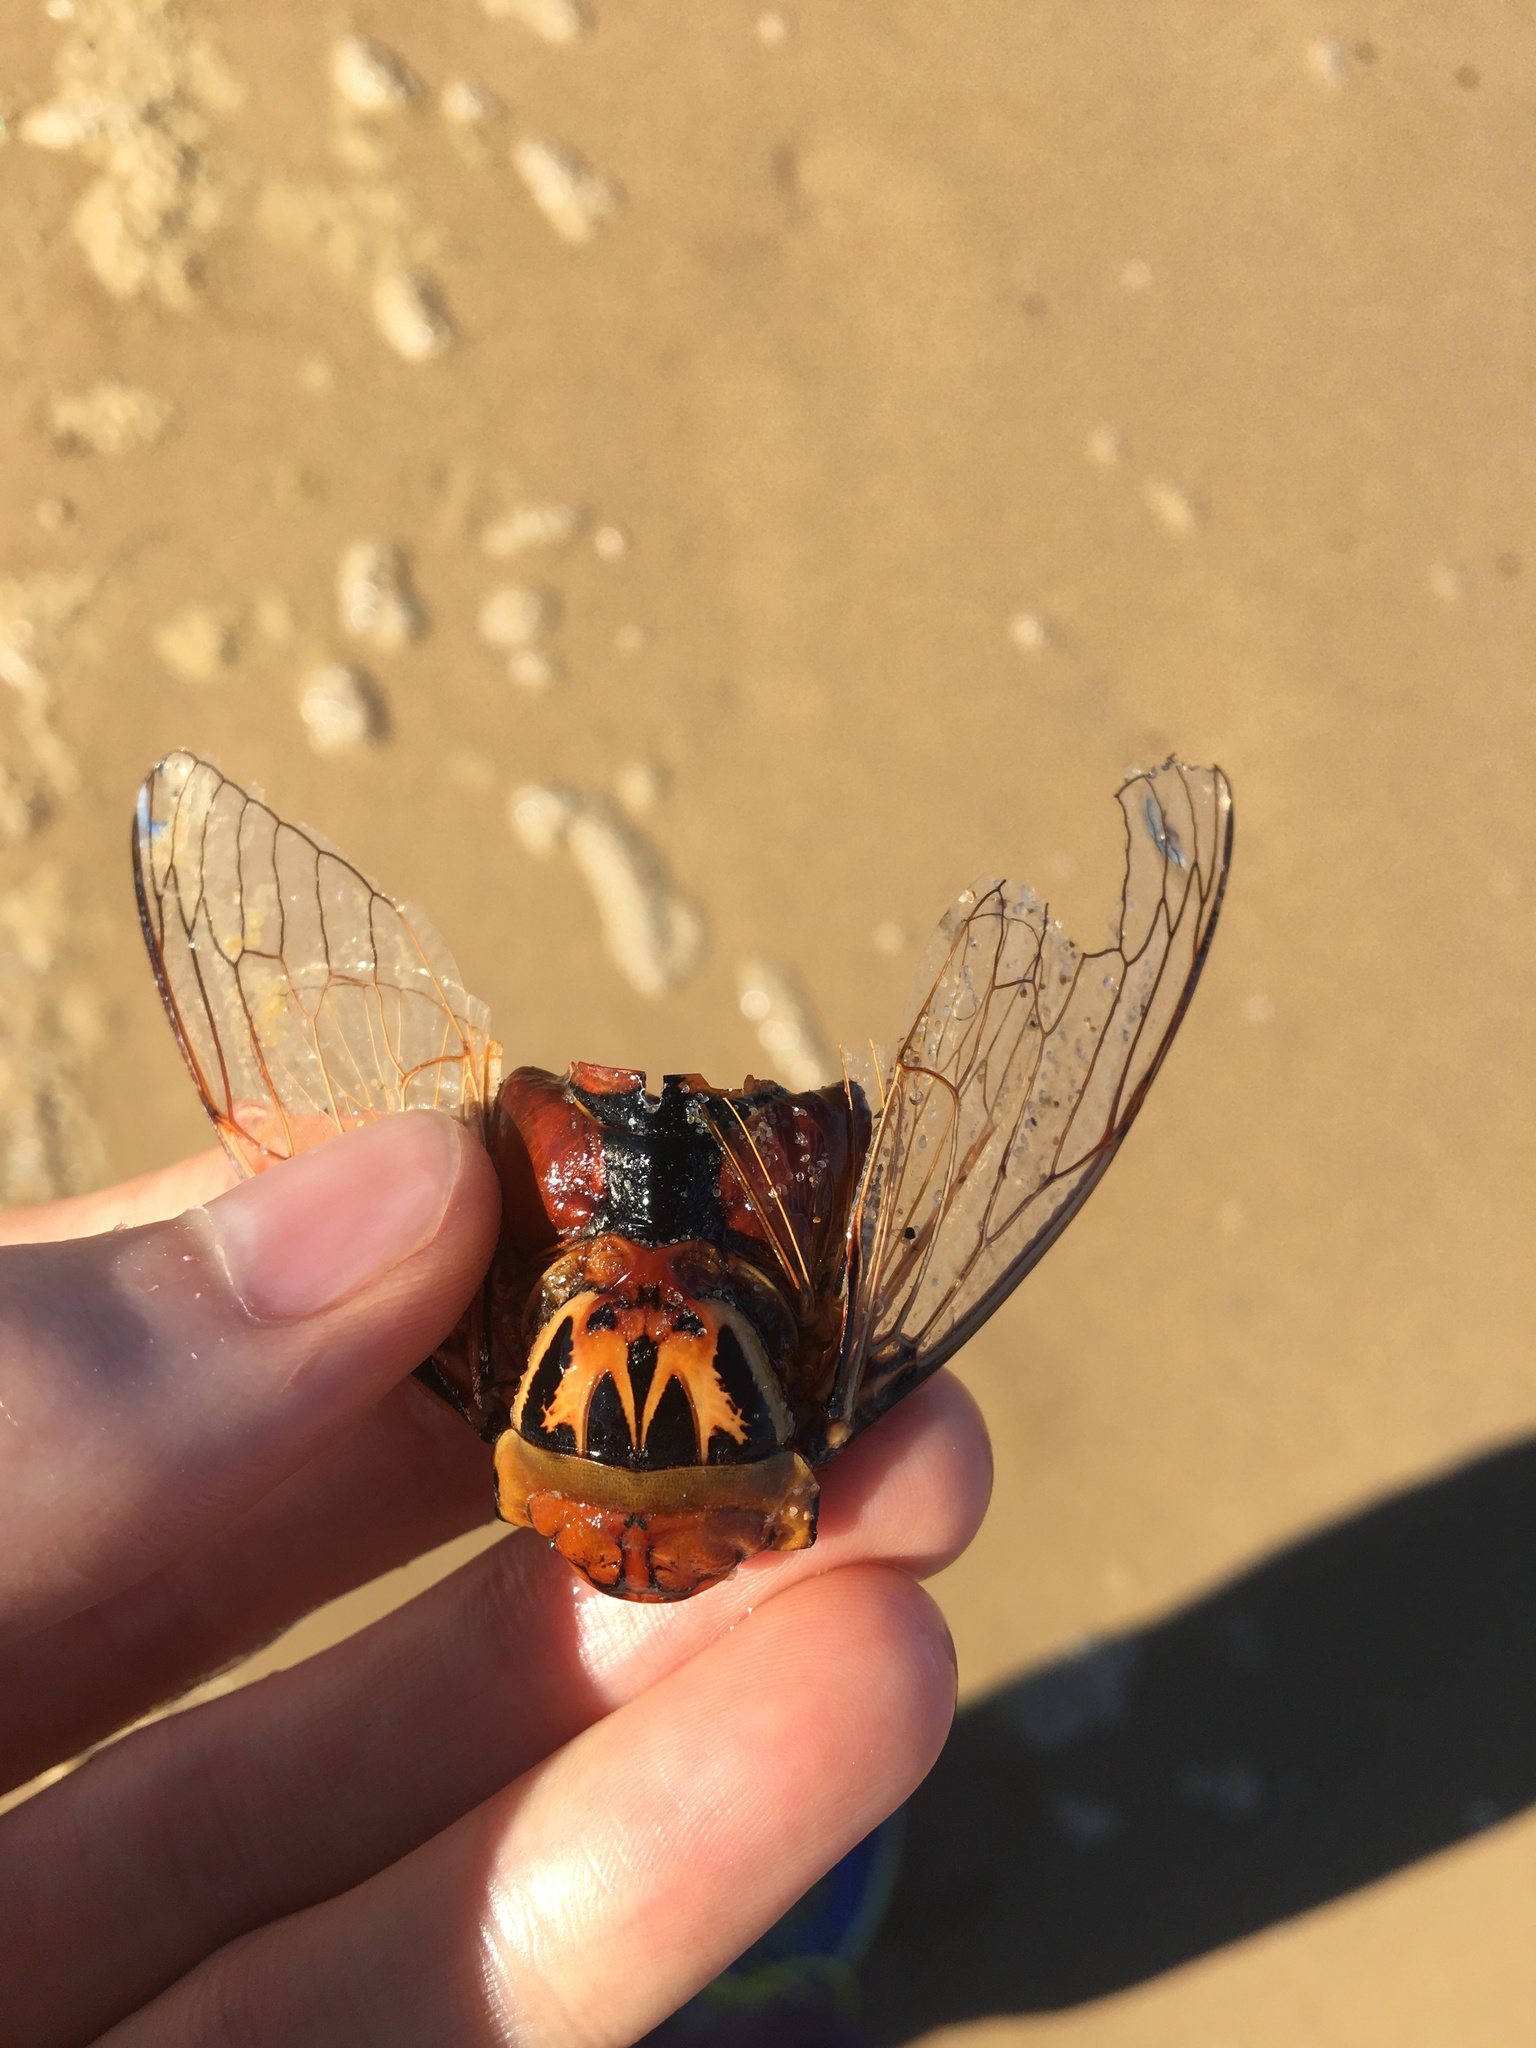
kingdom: Animalia
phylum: Arthropoda
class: Insecta
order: Hemiptera
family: Cicadidae
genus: Thopha
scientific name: Thopha saccata
